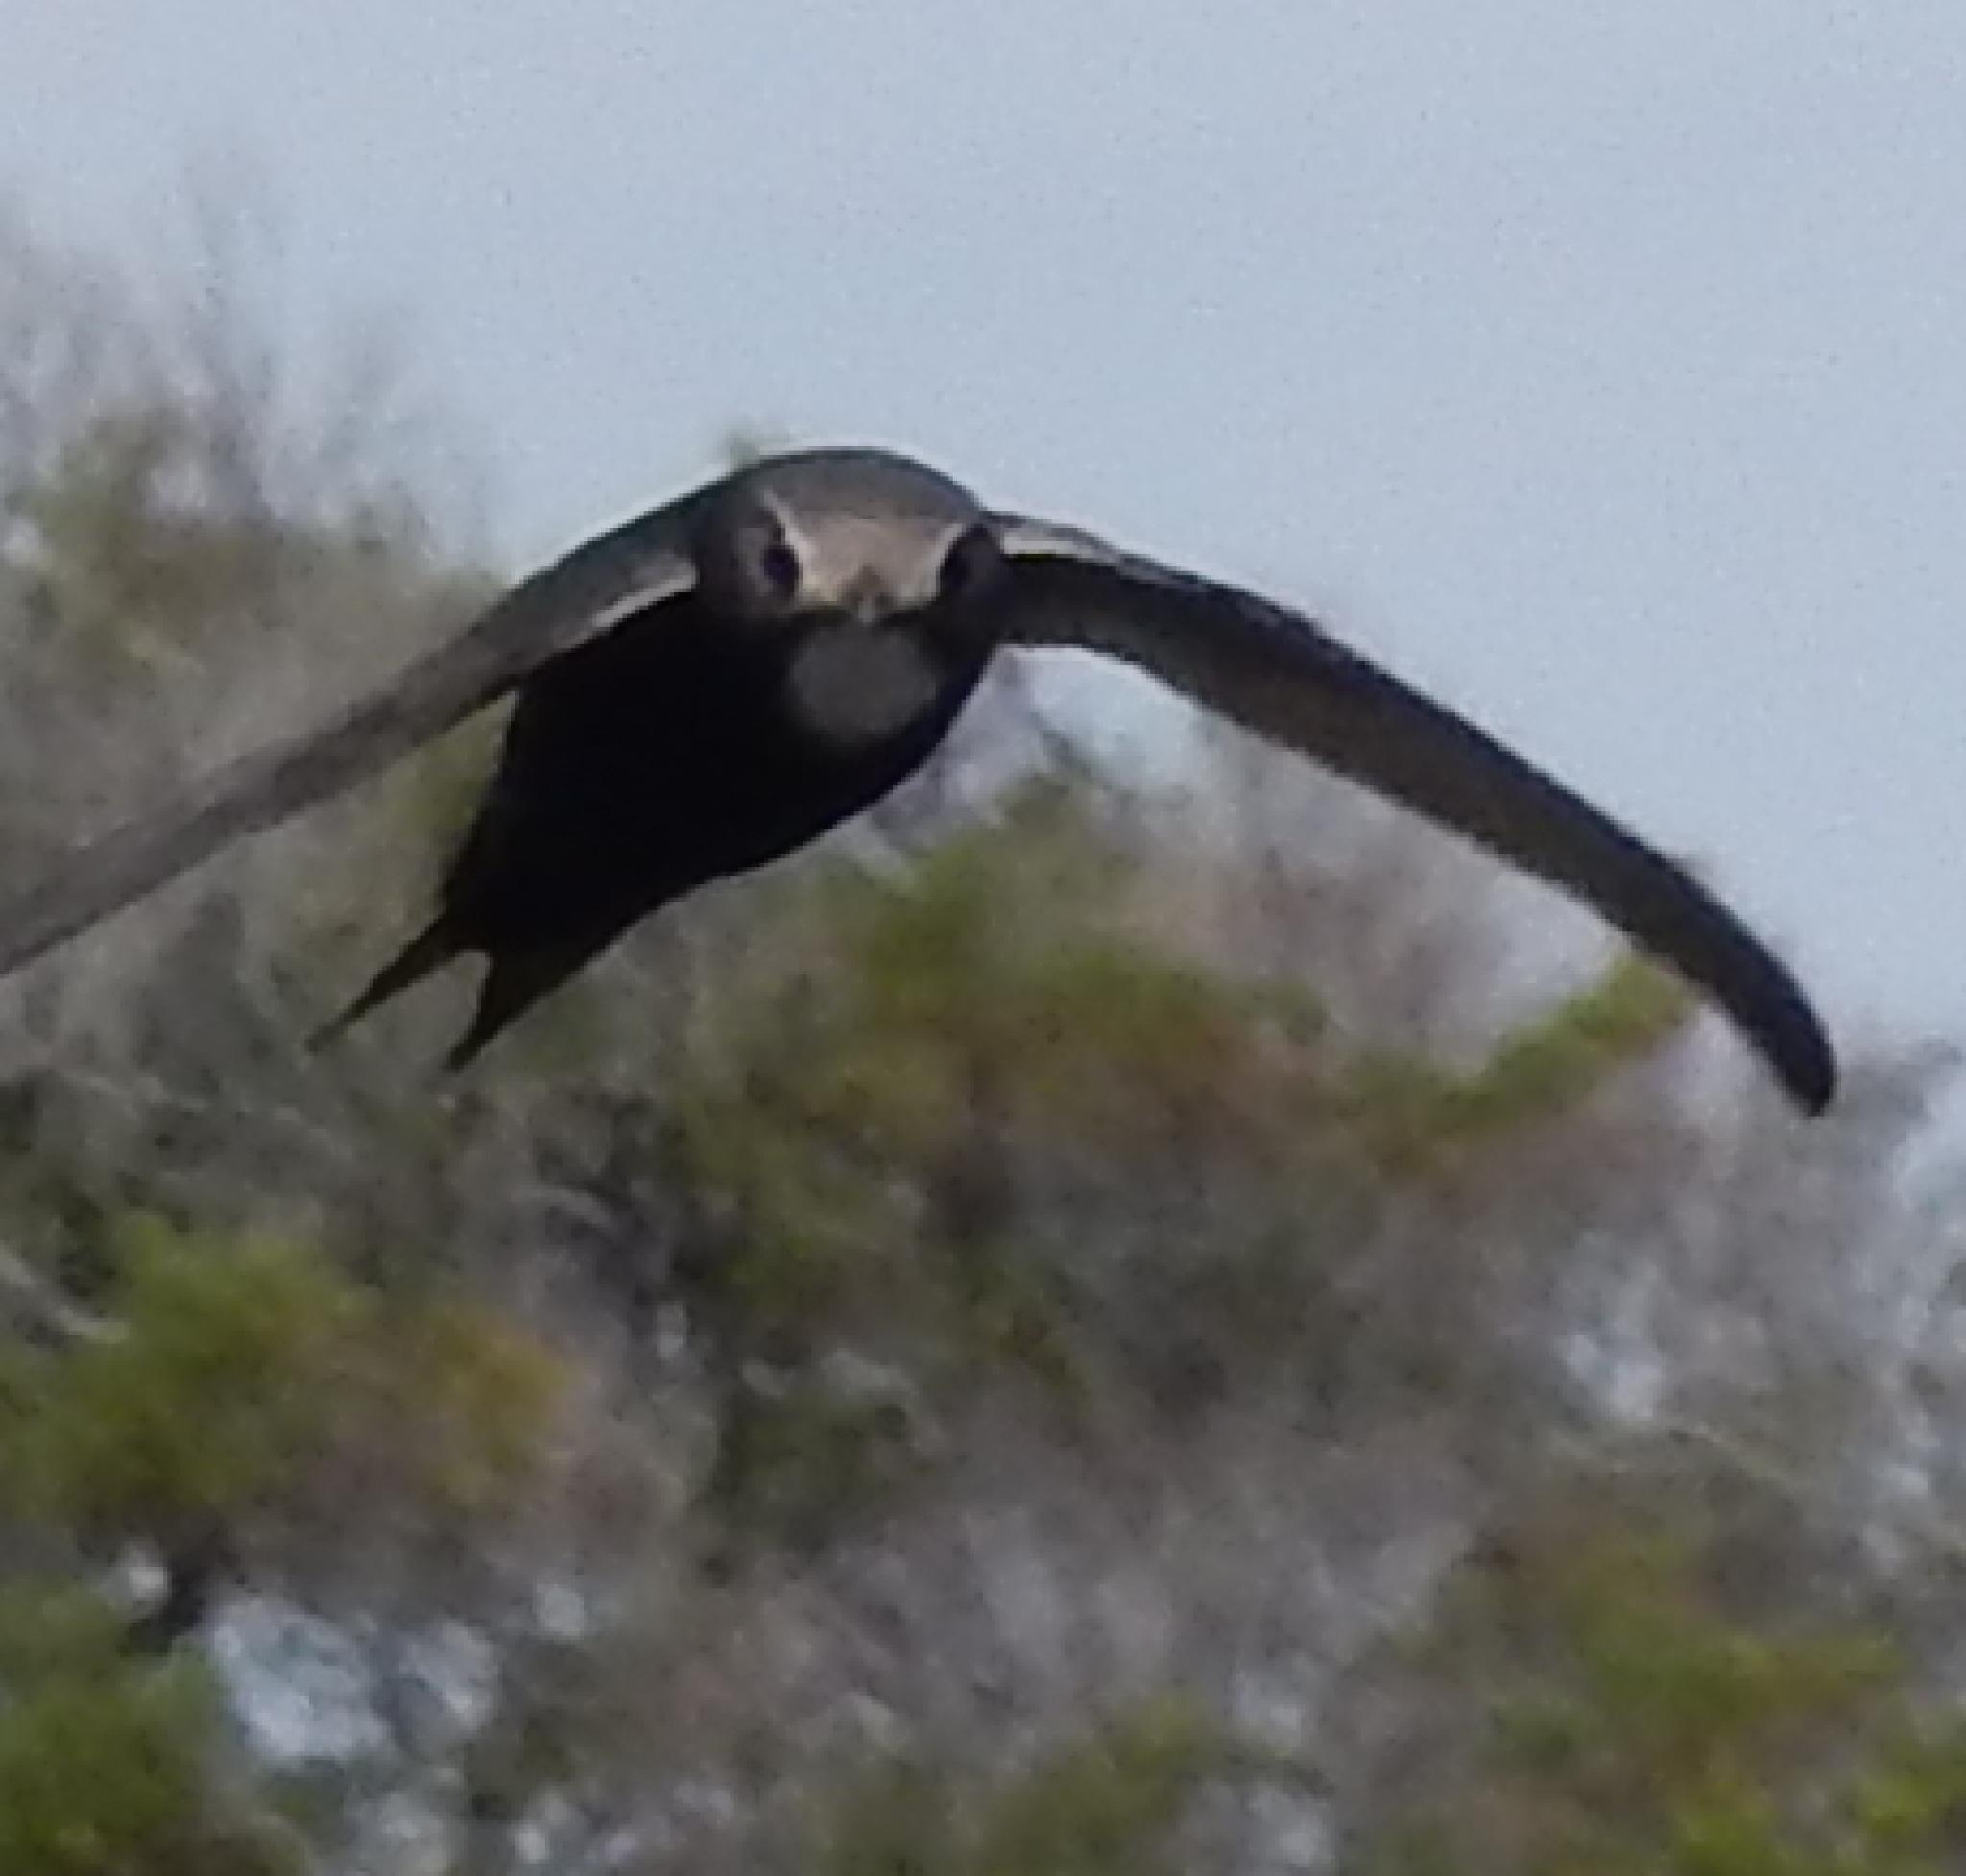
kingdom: Animalia
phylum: Chordata
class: Aves
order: Apodiformes
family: Apodidae
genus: Apus
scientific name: Apus caffer
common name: White-rumped swift
